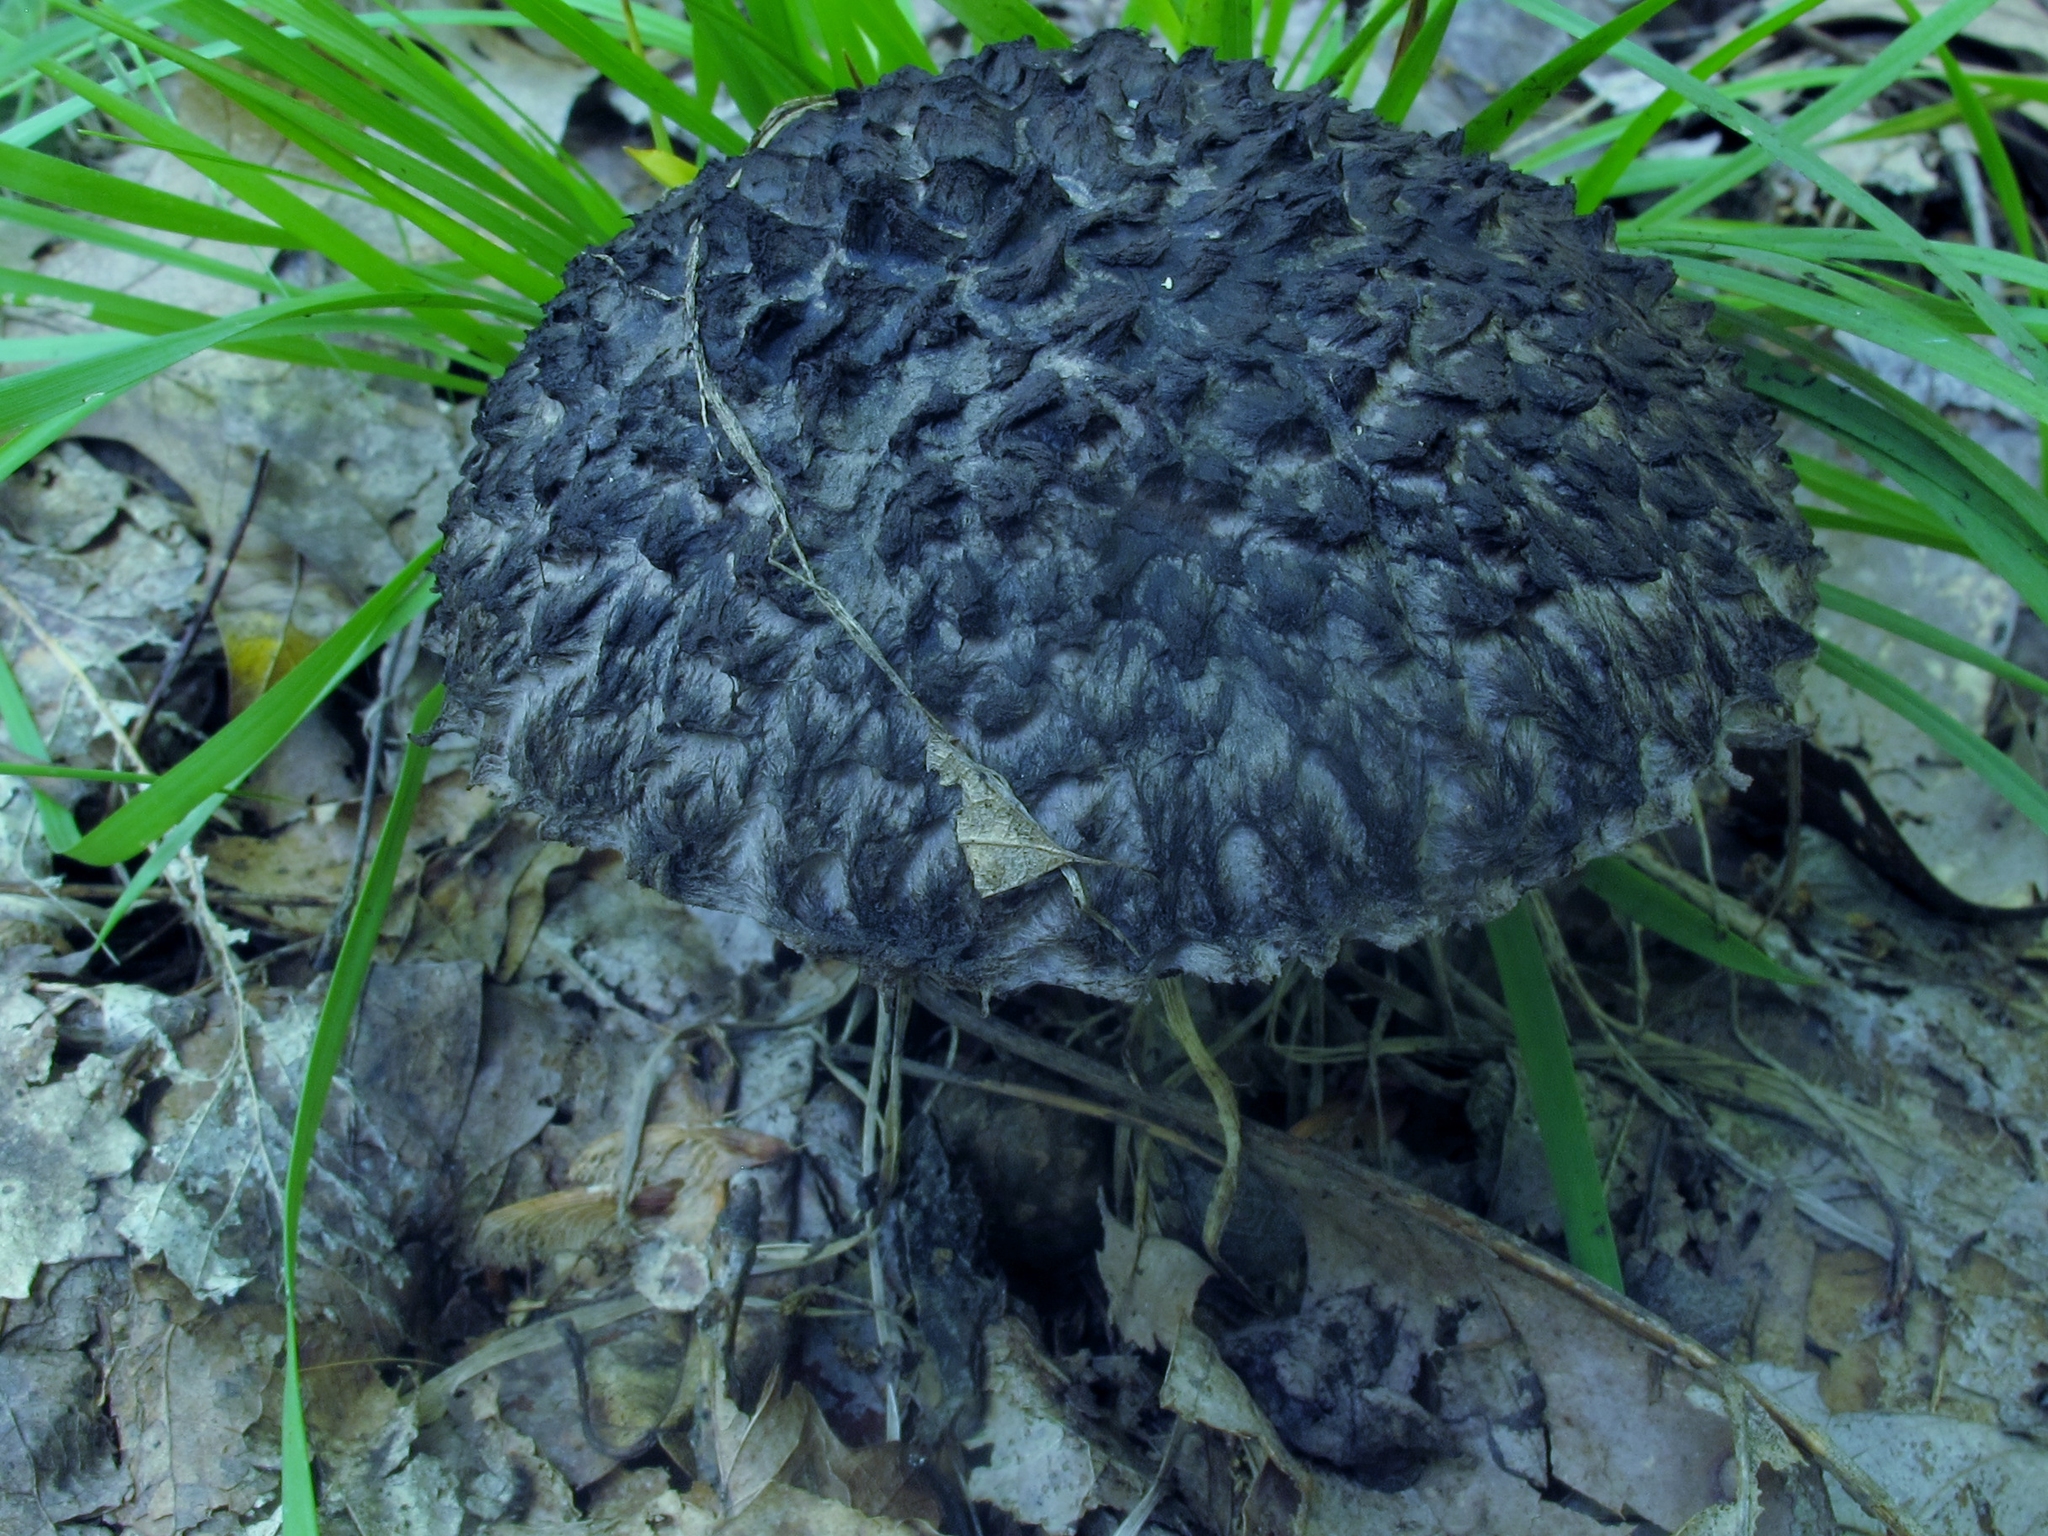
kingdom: Fungi
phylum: Basidiomycota
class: Agaricomycetes
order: Boletales
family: Boletaceae
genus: Strobilomyces
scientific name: Strobilomyces strobilaceus
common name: Old man of the woods
